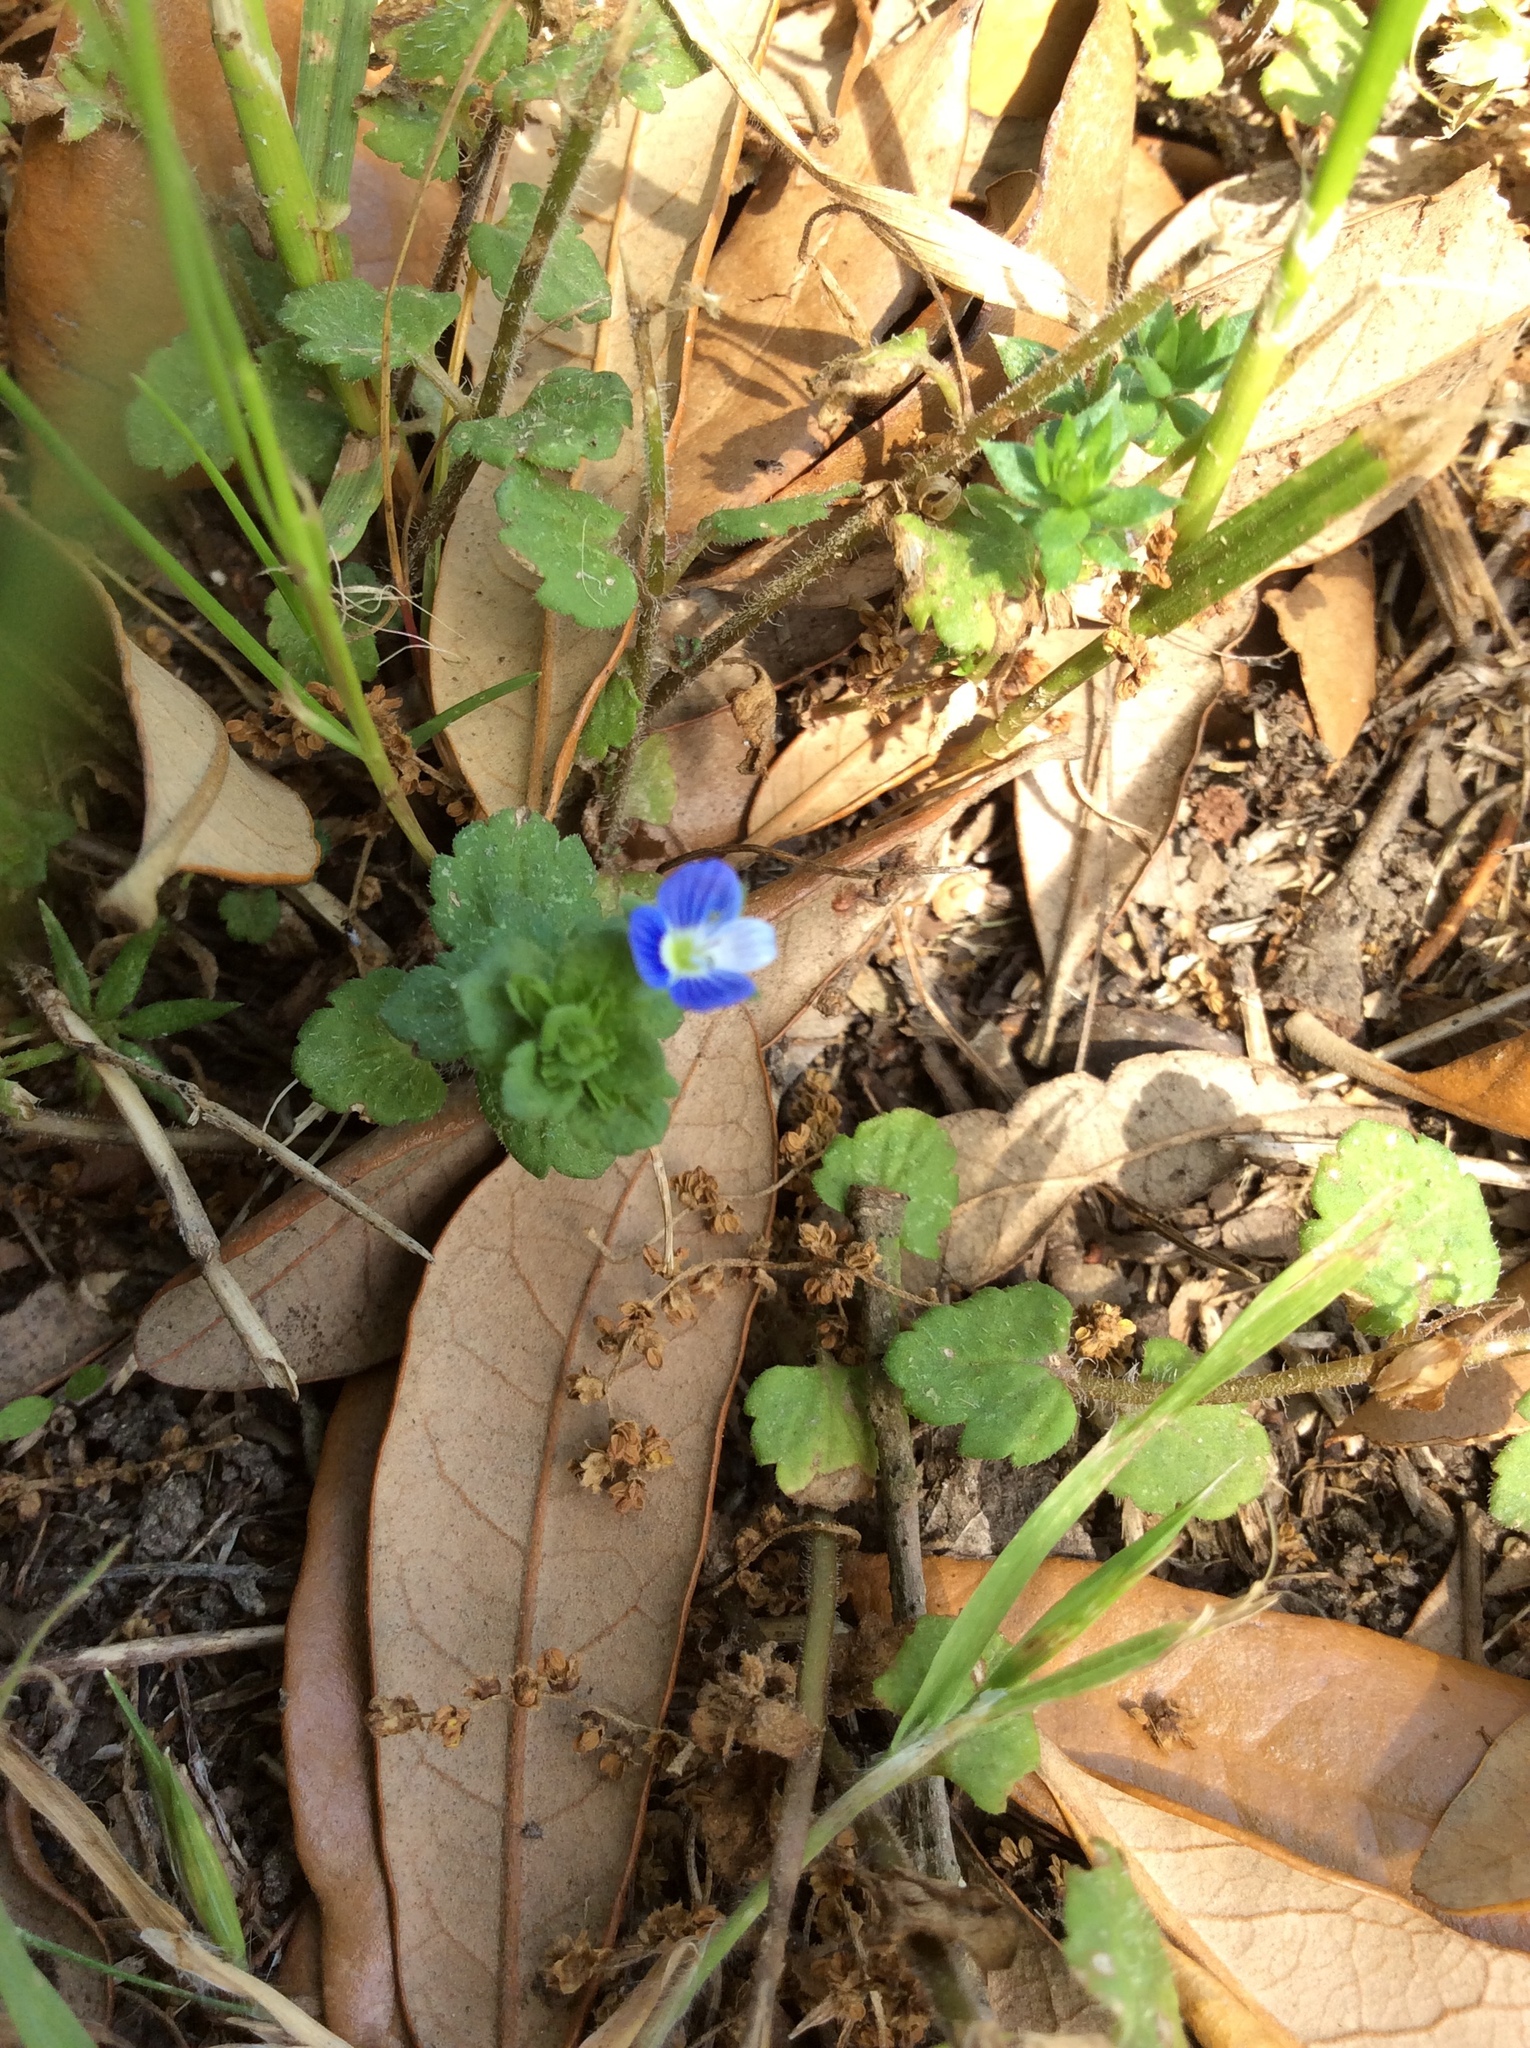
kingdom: Plantae
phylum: Tracheophyta
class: Magnoliopsida
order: Lamiales
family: Plantaginaceae
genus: Veronica
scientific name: Veronica persica
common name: Common field-speedwell
